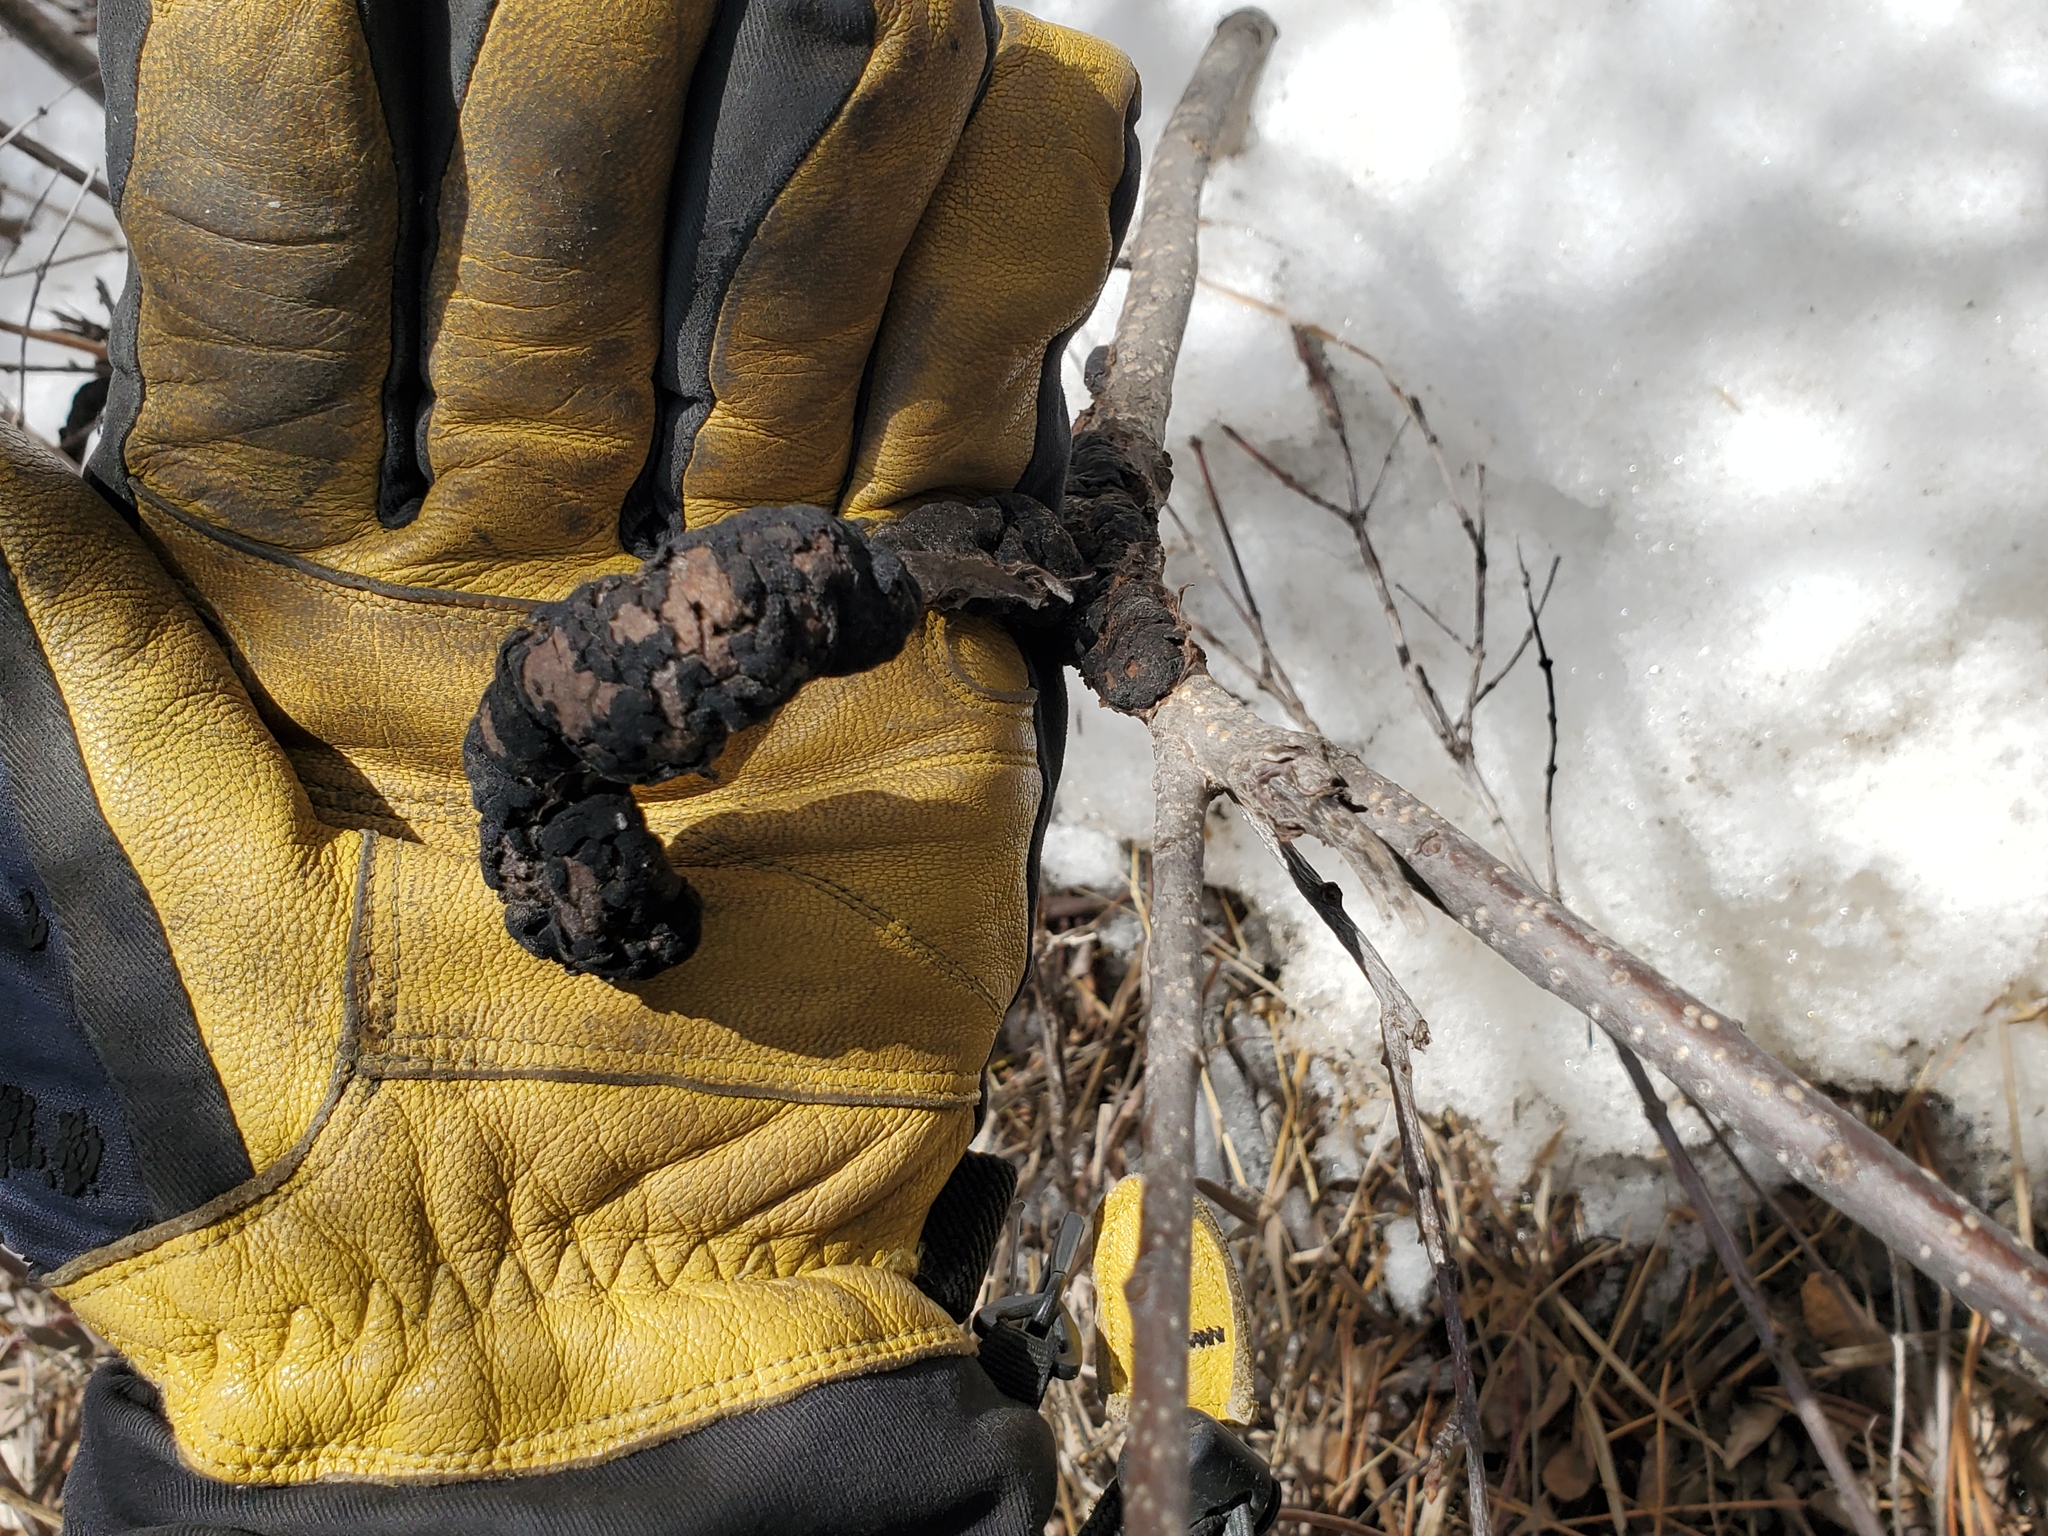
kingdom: Fungi
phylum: Ascomycota
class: Dothideomycetes
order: Venturiales
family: Venturiaceae
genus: Apiosporina
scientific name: Apiosporina morbosa
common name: Black knot
